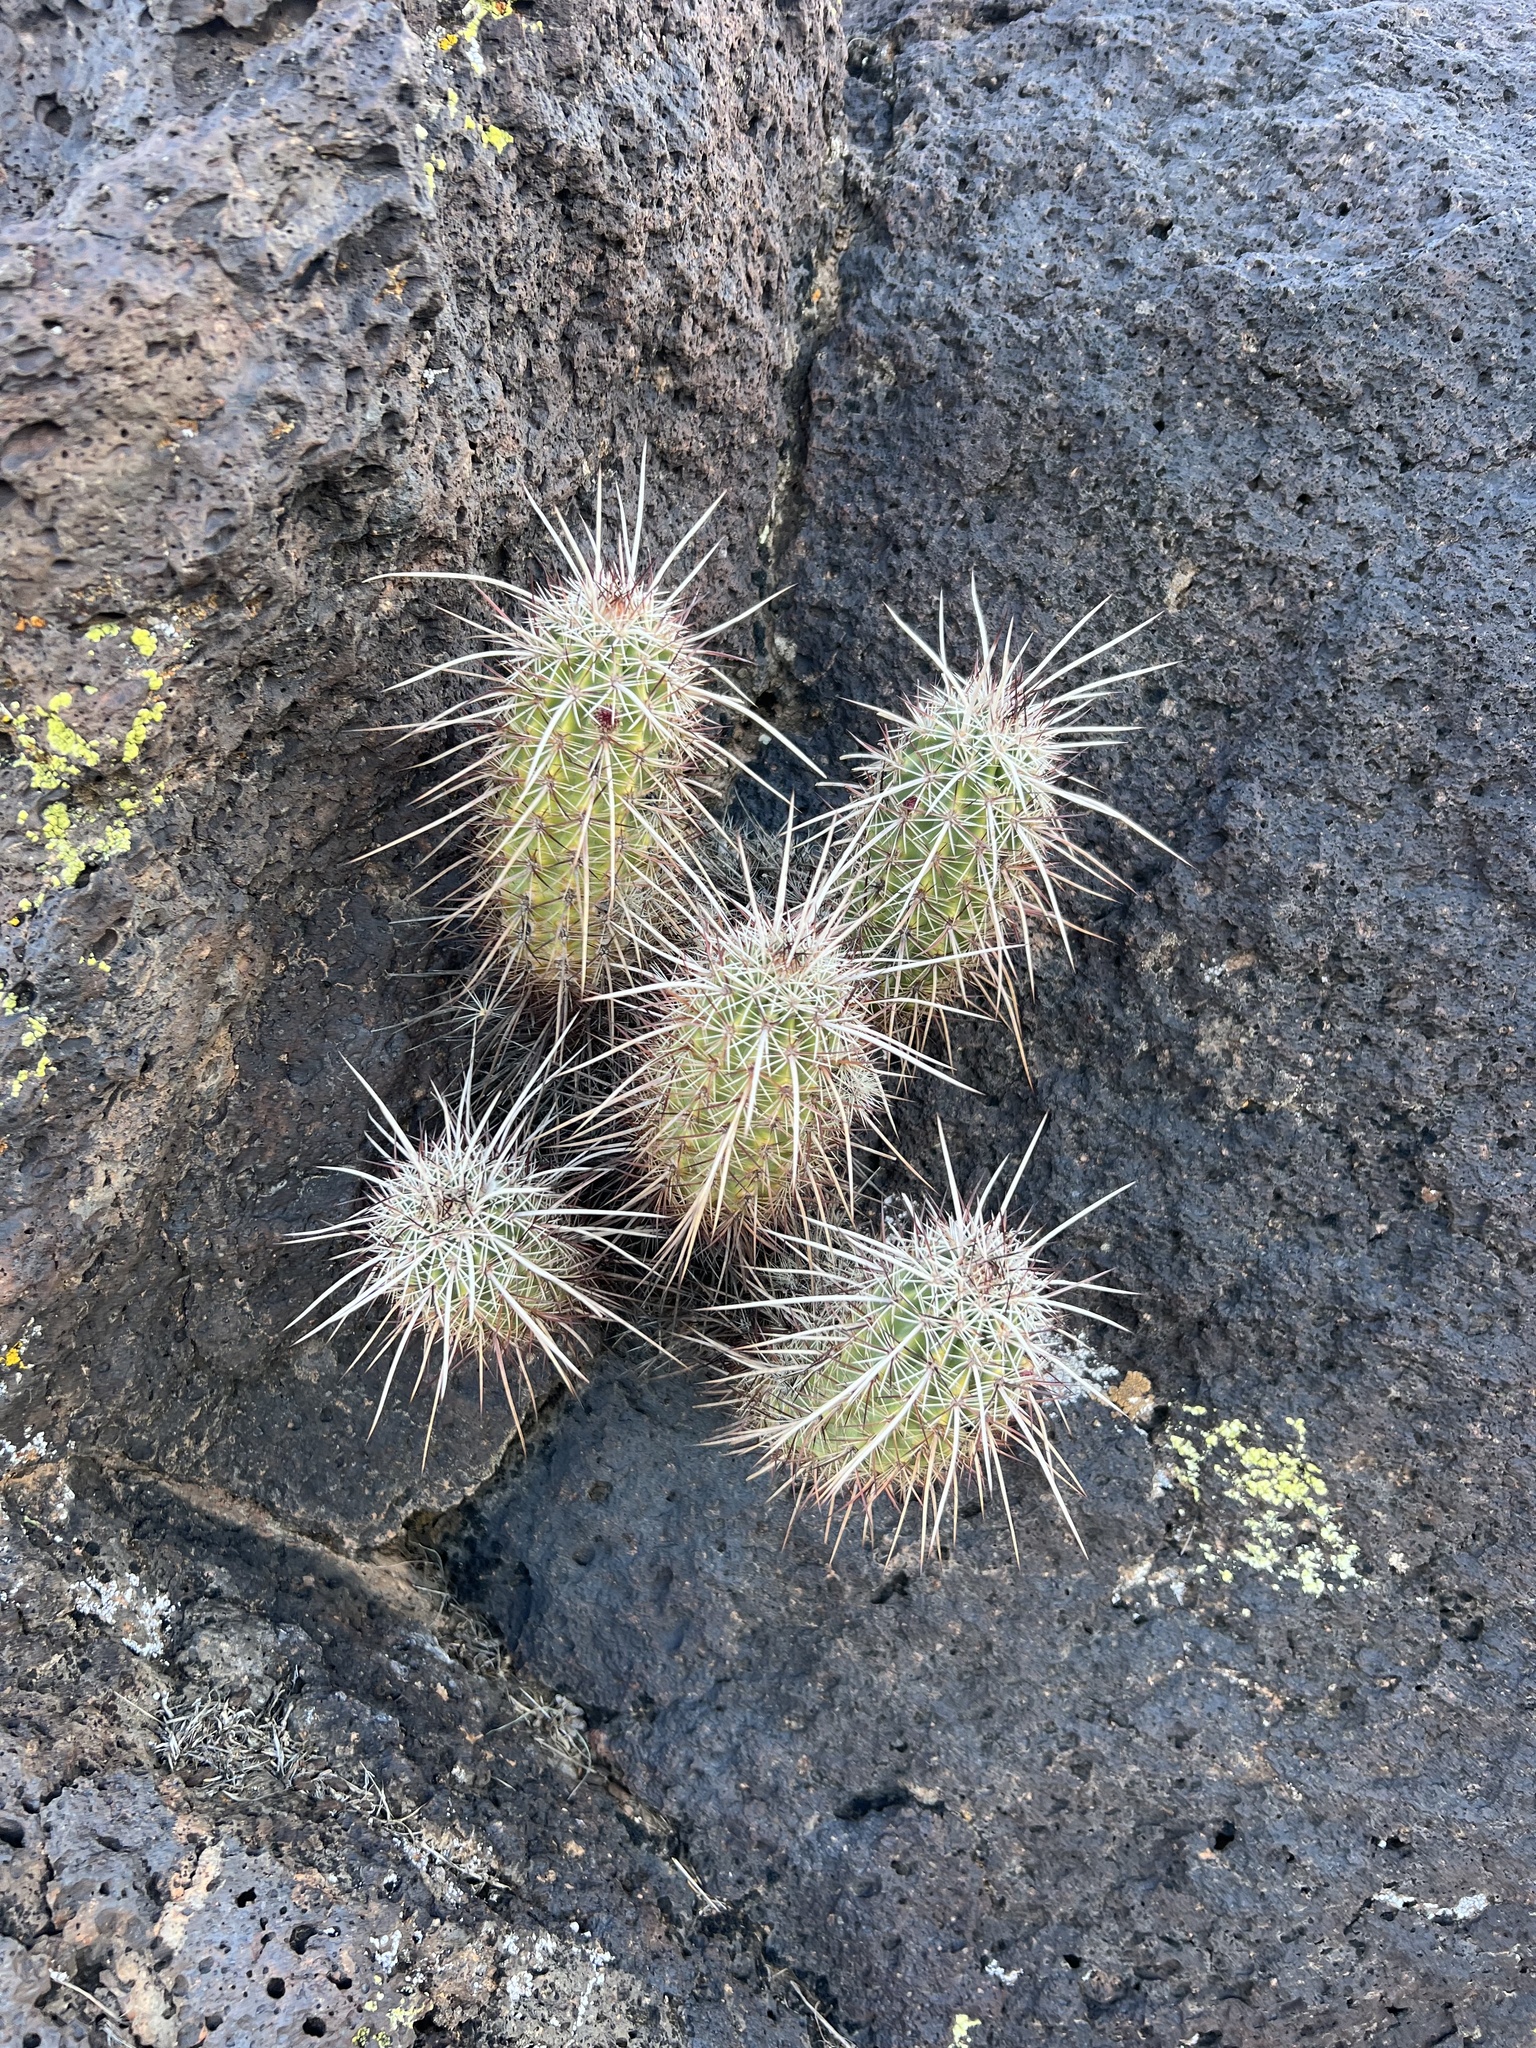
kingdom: Plantae
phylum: Tracheophyta
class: Magnoliopsida
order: Caryophyllales
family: Cactaceae
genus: Echinocereus
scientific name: Echinocereus relictus
